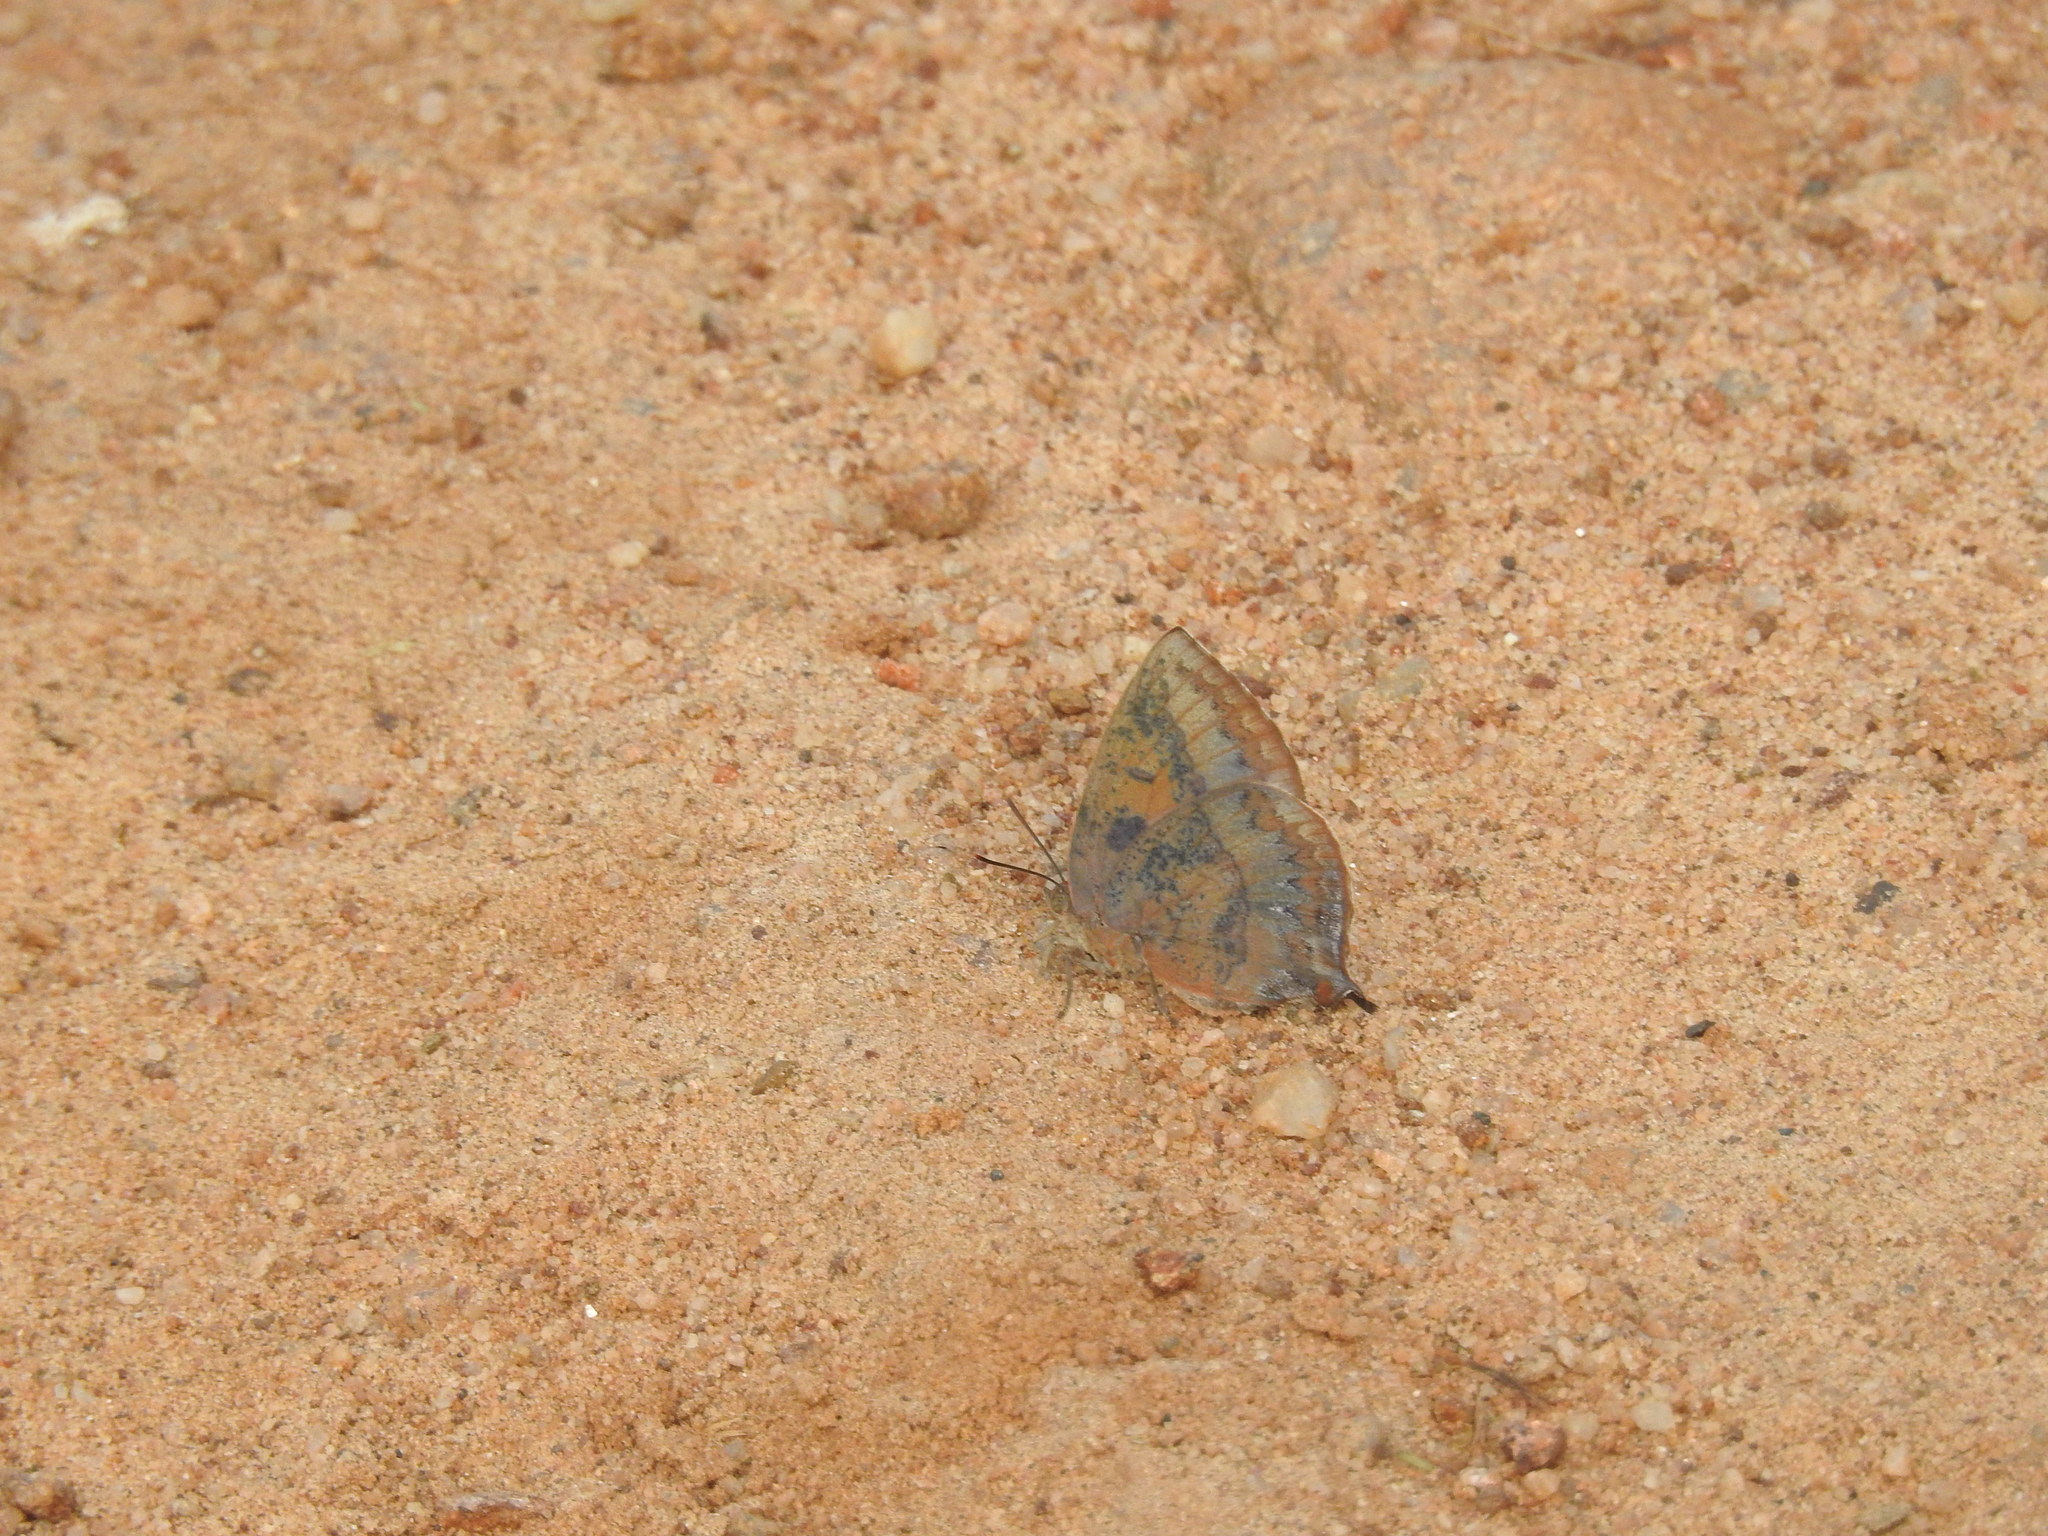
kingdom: Animalia
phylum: Arthropoda
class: Insecta
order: Lepidoptera
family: Lycaenidae
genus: Amblypodia
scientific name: Amblypodia anita
